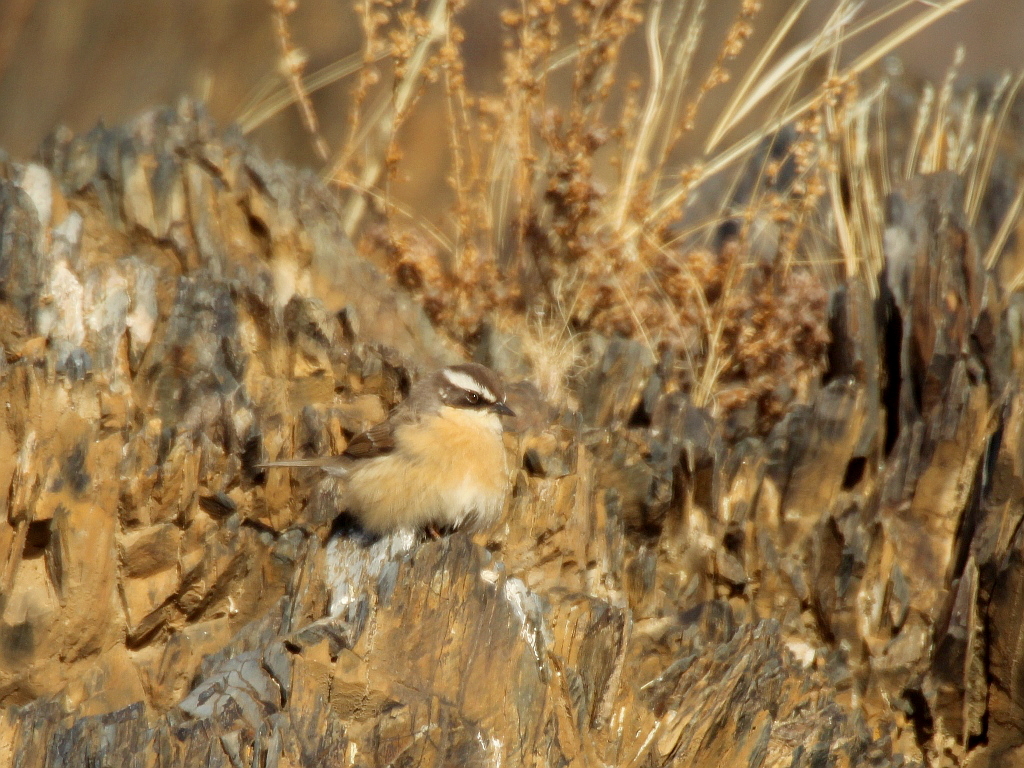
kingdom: Animalia
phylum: Chordata
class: Aves
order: Passeriformes
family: Prunellidae
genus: Prunella
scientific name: Prunella fulvescens
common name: Brown accentor
